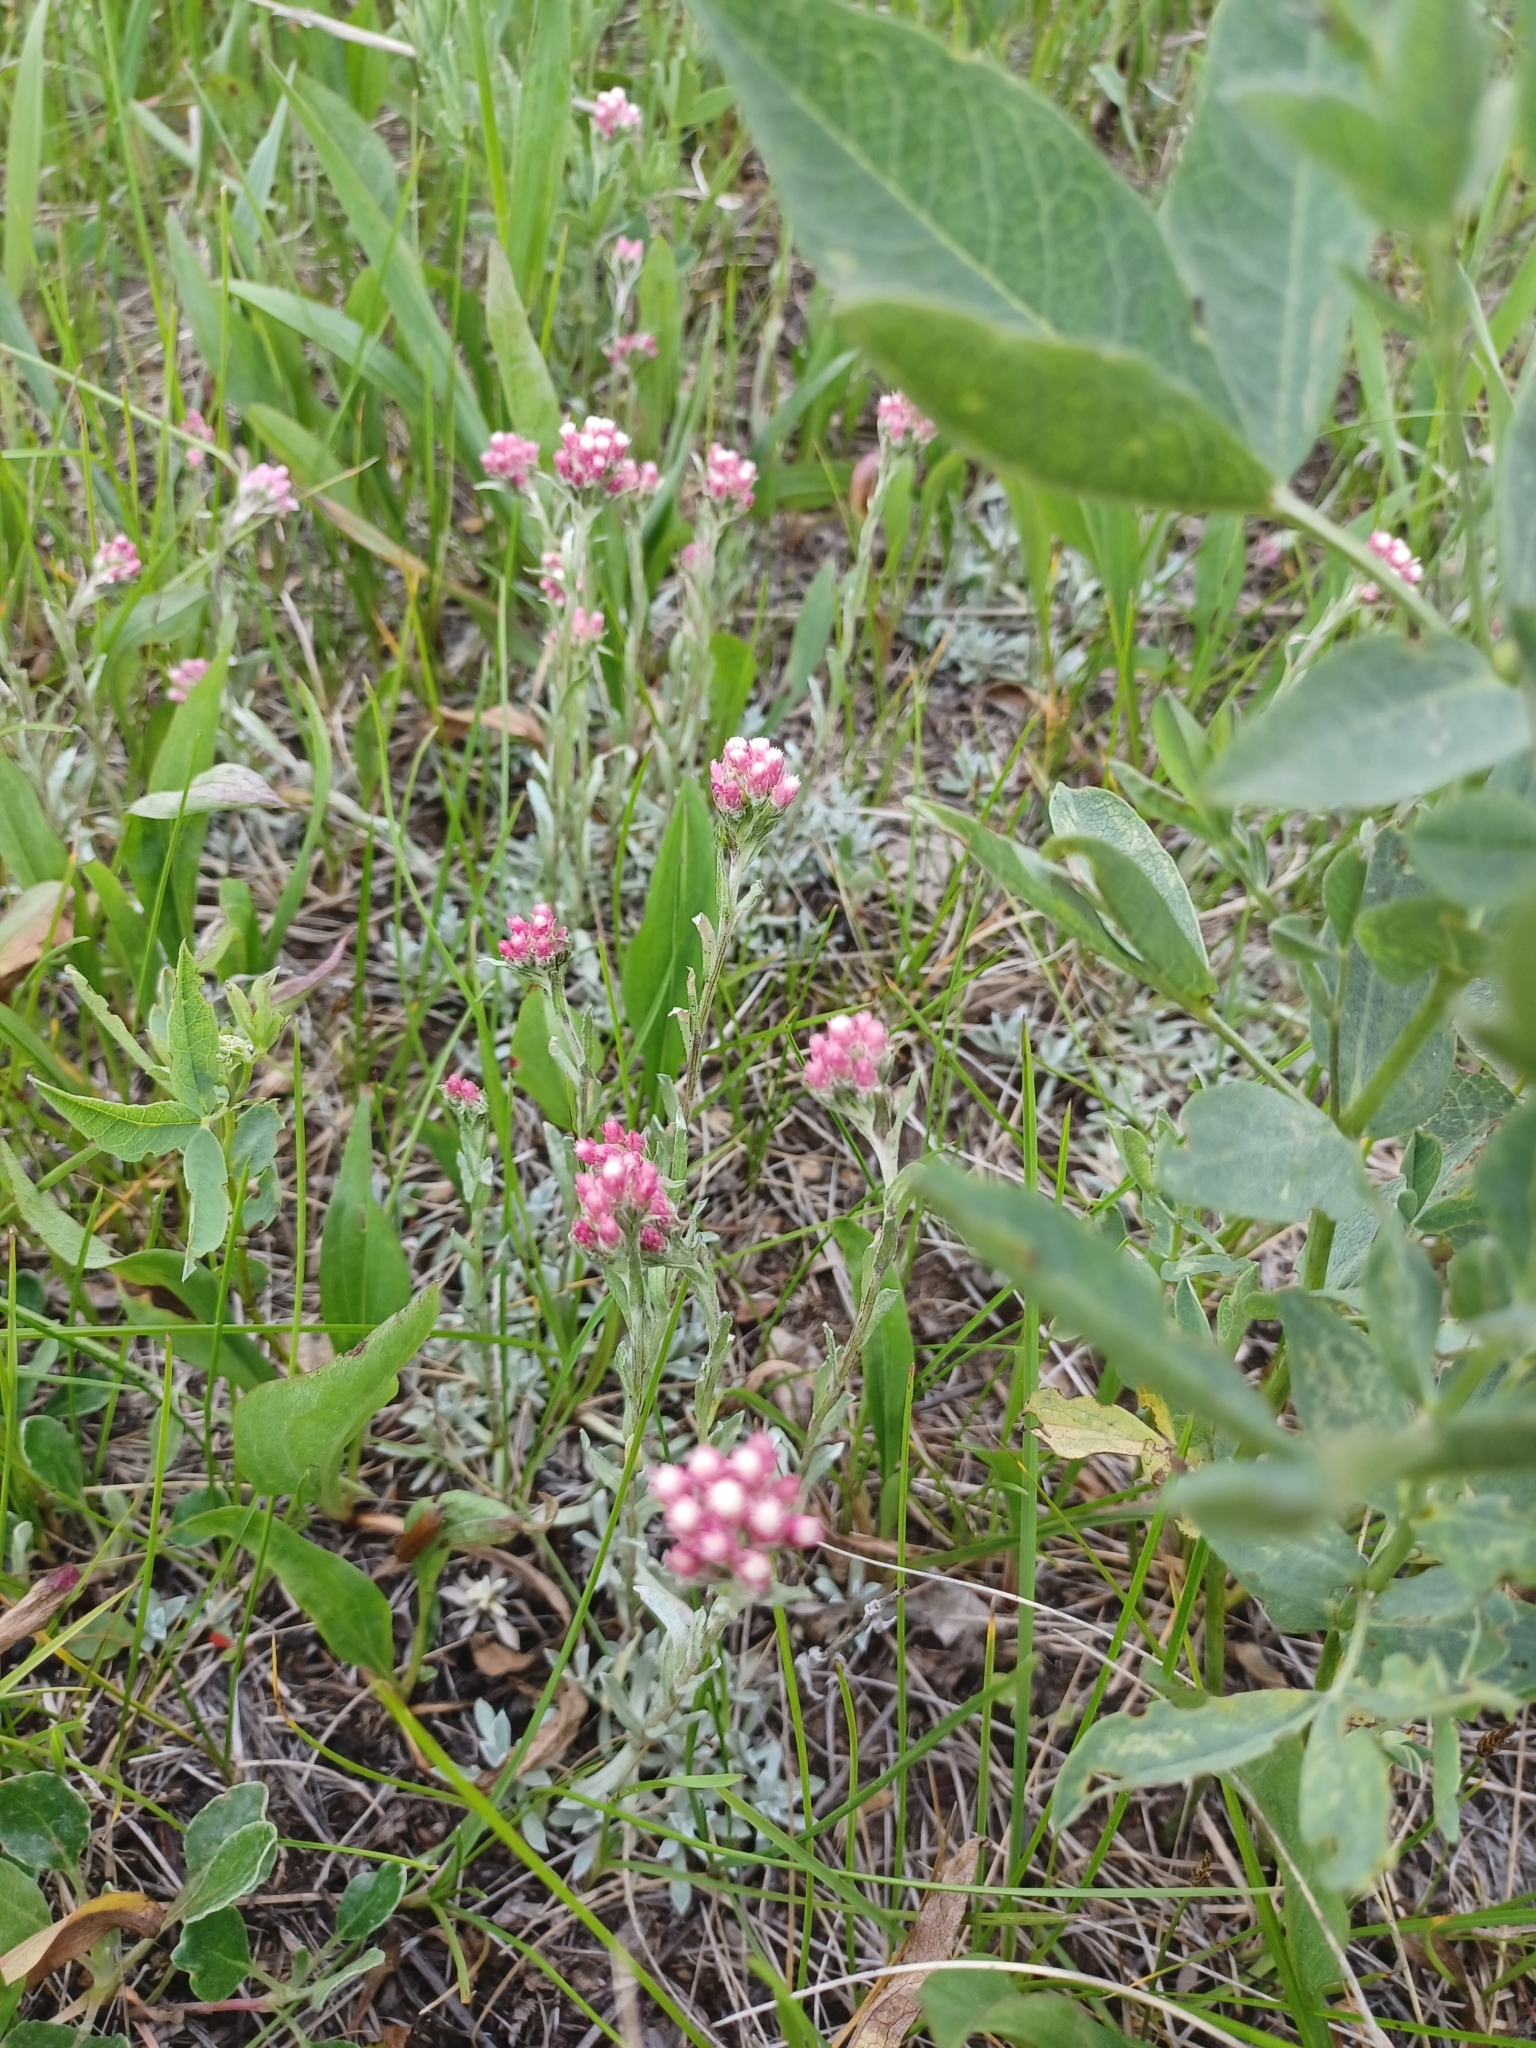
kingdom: Plantae
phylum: Tracheophyta
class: Magnoliopsida
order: Asterales
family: Asteraceae
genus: Antennaria
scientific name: Antennaria rosea
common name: Rosy pussytoes
